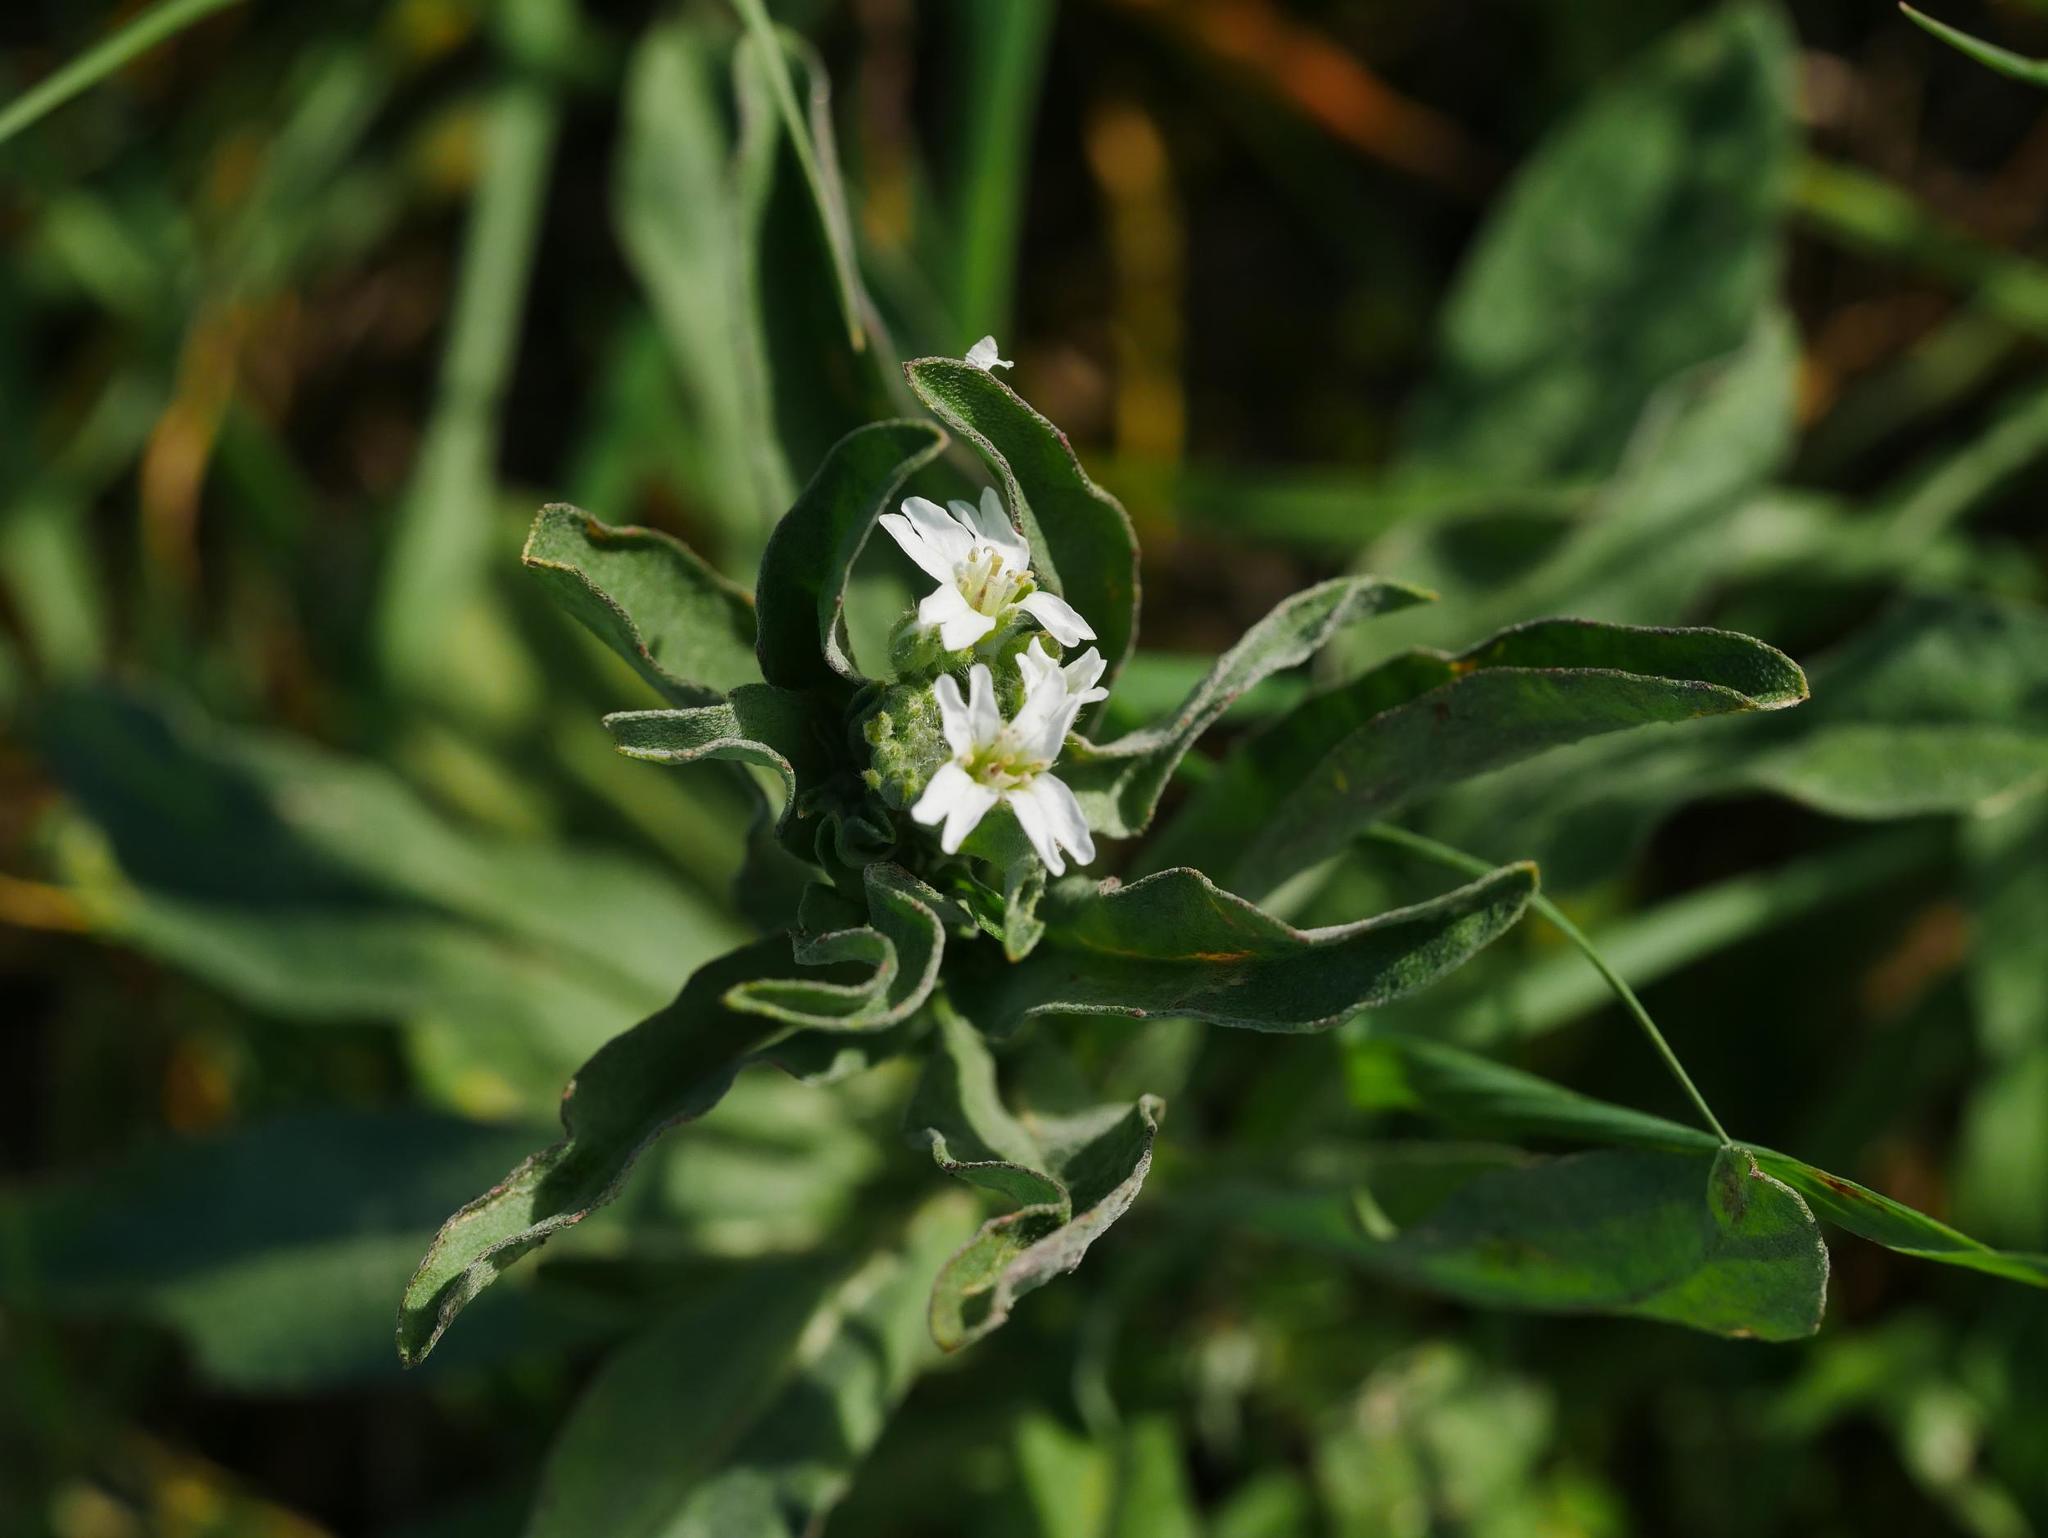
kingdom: Plantae
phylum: Tracheophyta
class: Magnoliopsida
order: Brassicales
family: Brassicaceae
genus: Berteroa
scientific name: Berteroa incana
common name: Hoary alison
